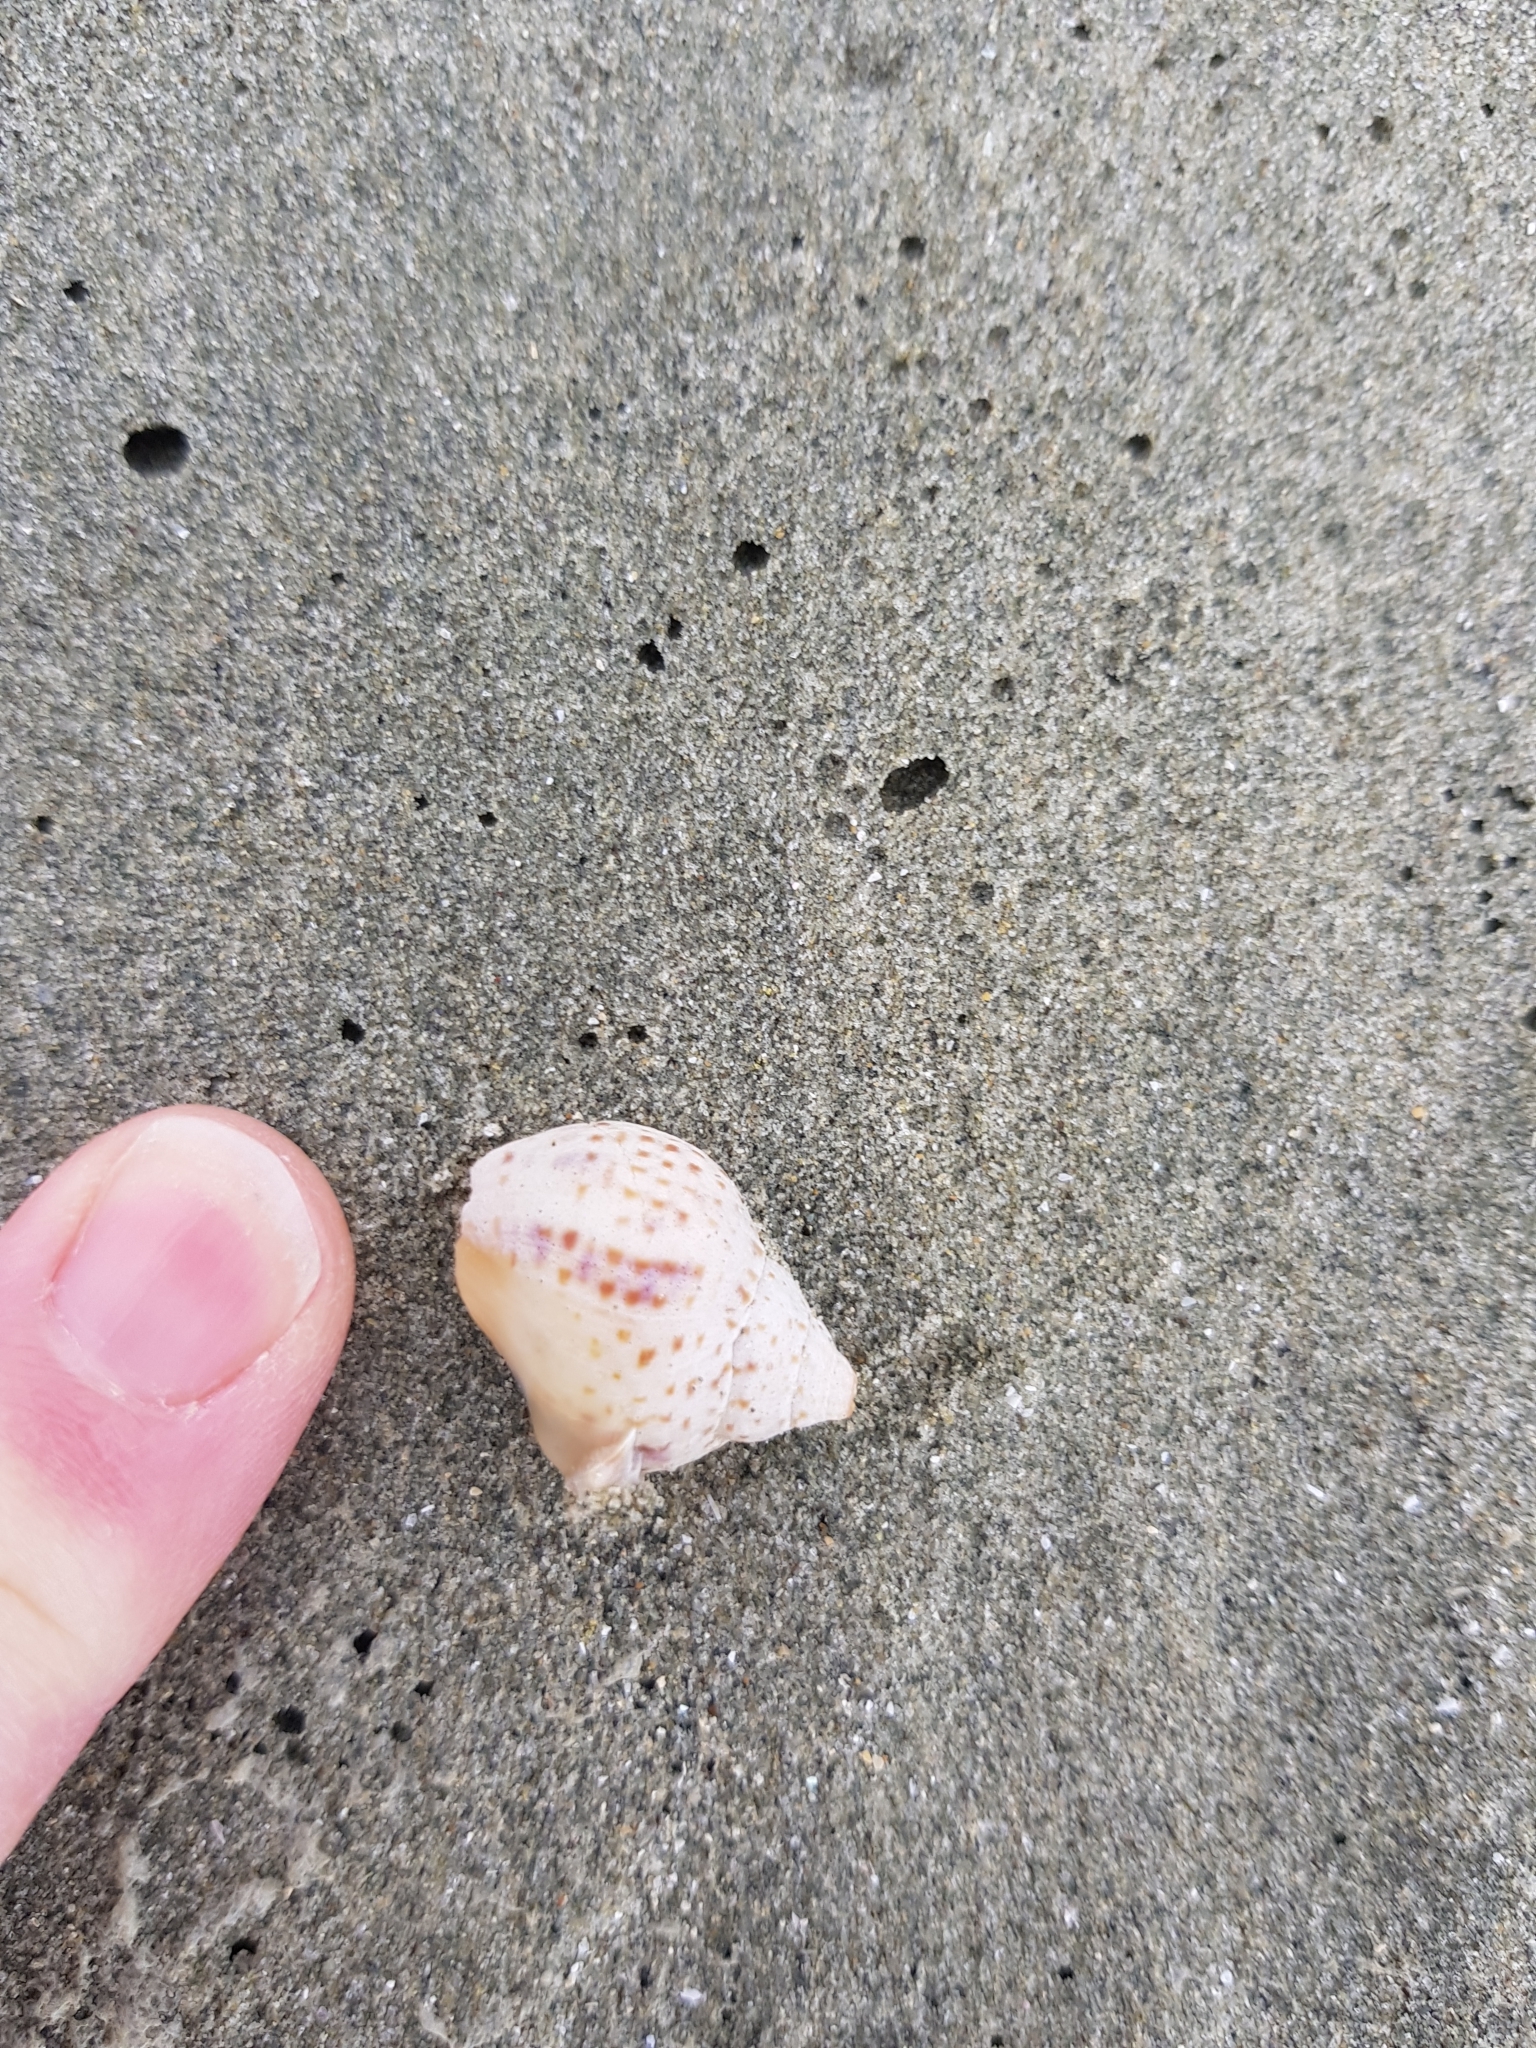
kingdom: Animalia
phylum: Mollusca
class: Gastropoda
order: Neogastropoda
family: Cominellidae
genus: Cominella
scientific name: Cominella adspersa
